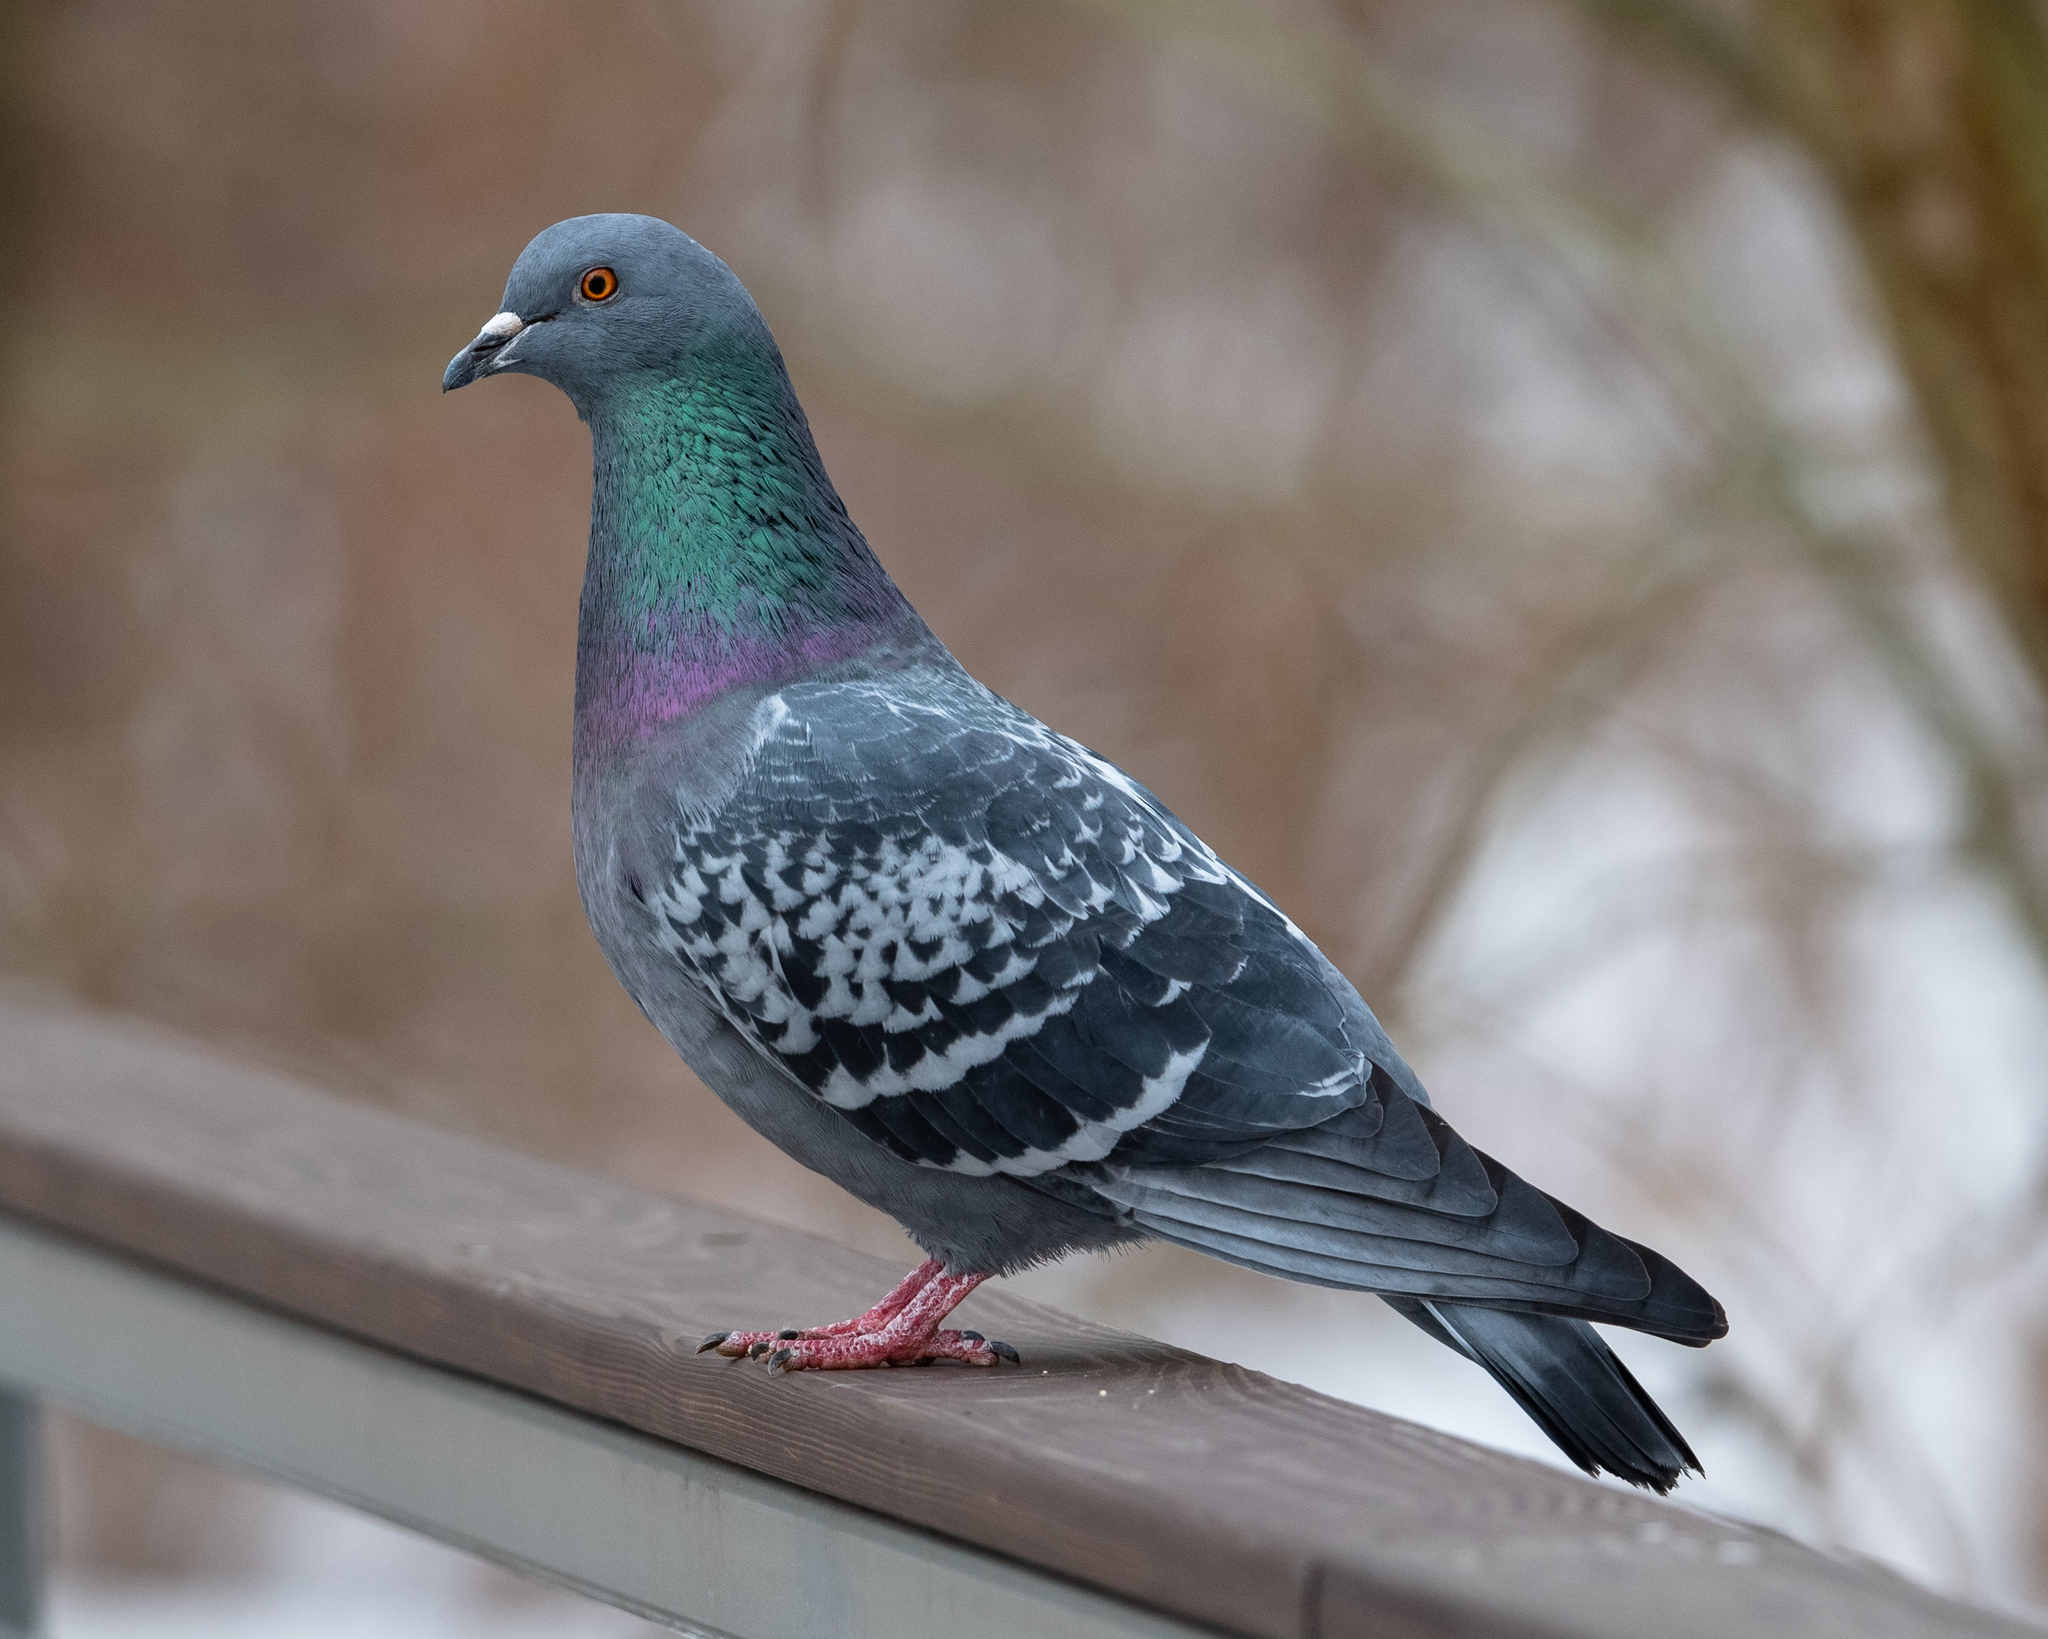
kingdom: Animalia
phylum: Chordata
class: Aves
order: Columbiformes
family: Columbidae
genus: Columba
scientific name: Columba livia
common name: Rock pigeon
